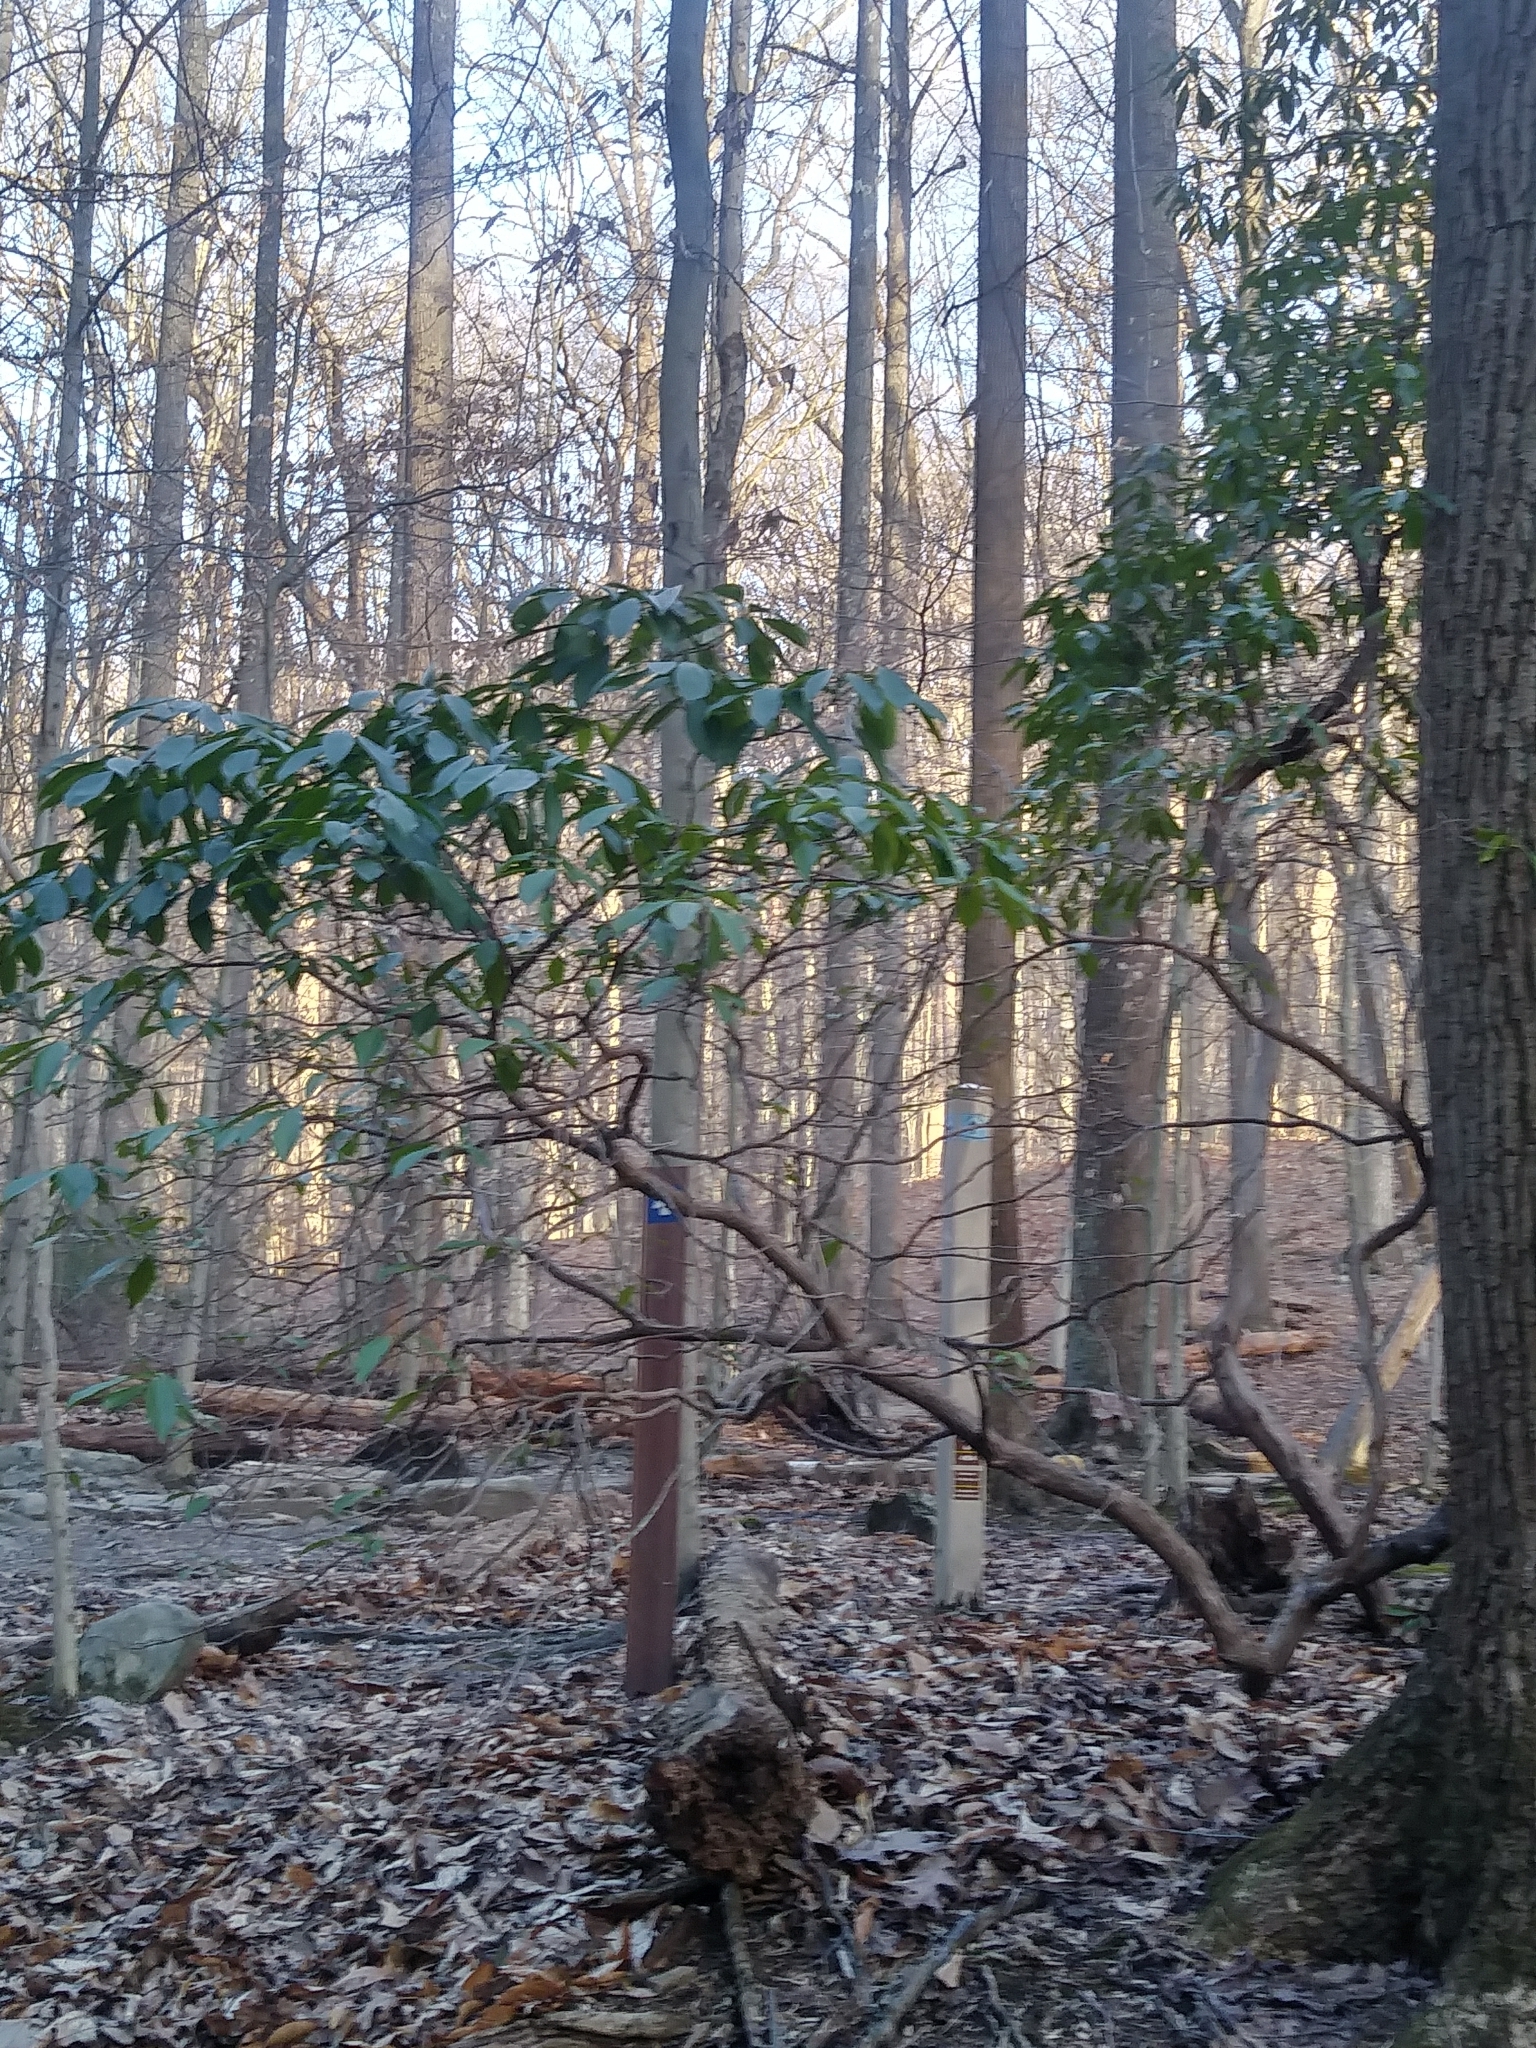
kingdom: Plantae
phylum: Tracheophyta
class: Magnoliopsida
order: Ericales
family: Ericaceae
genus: Kalmia
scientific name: Kalmia latifolia
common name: Mountain-laurel
